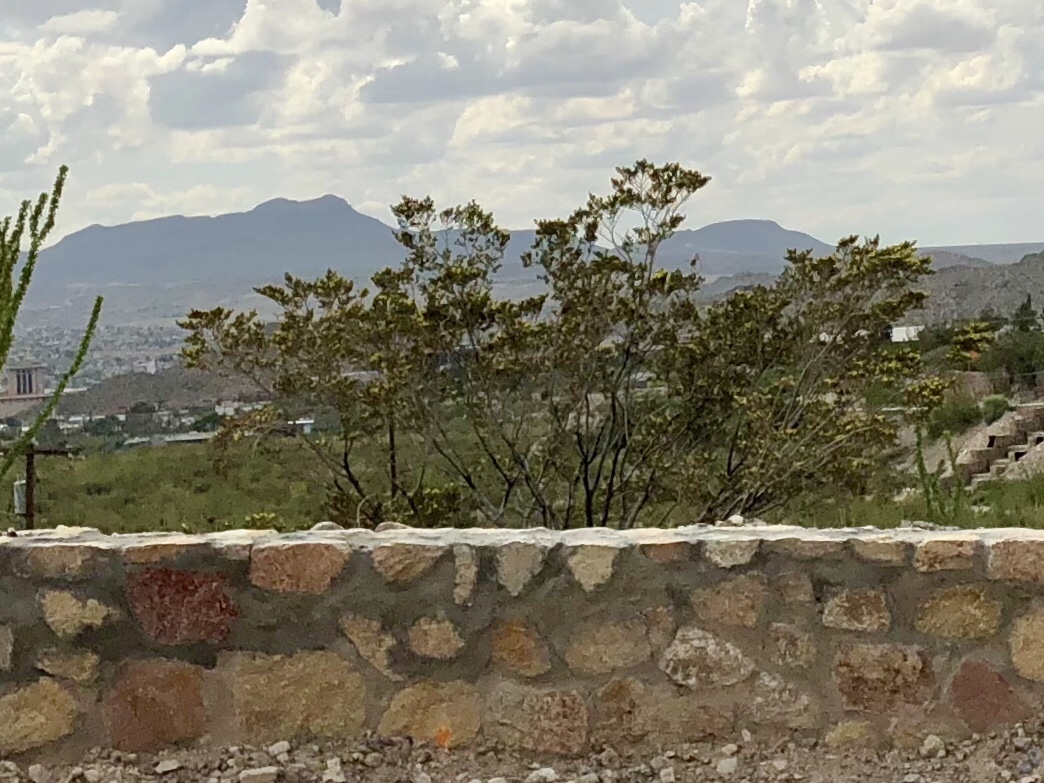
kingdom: Plantae
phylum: Tracheophyta
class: Magnoliopsida
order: Zygophyllales
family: Zygophyllaceae
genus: Larrea
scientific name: Larrea tridentata
